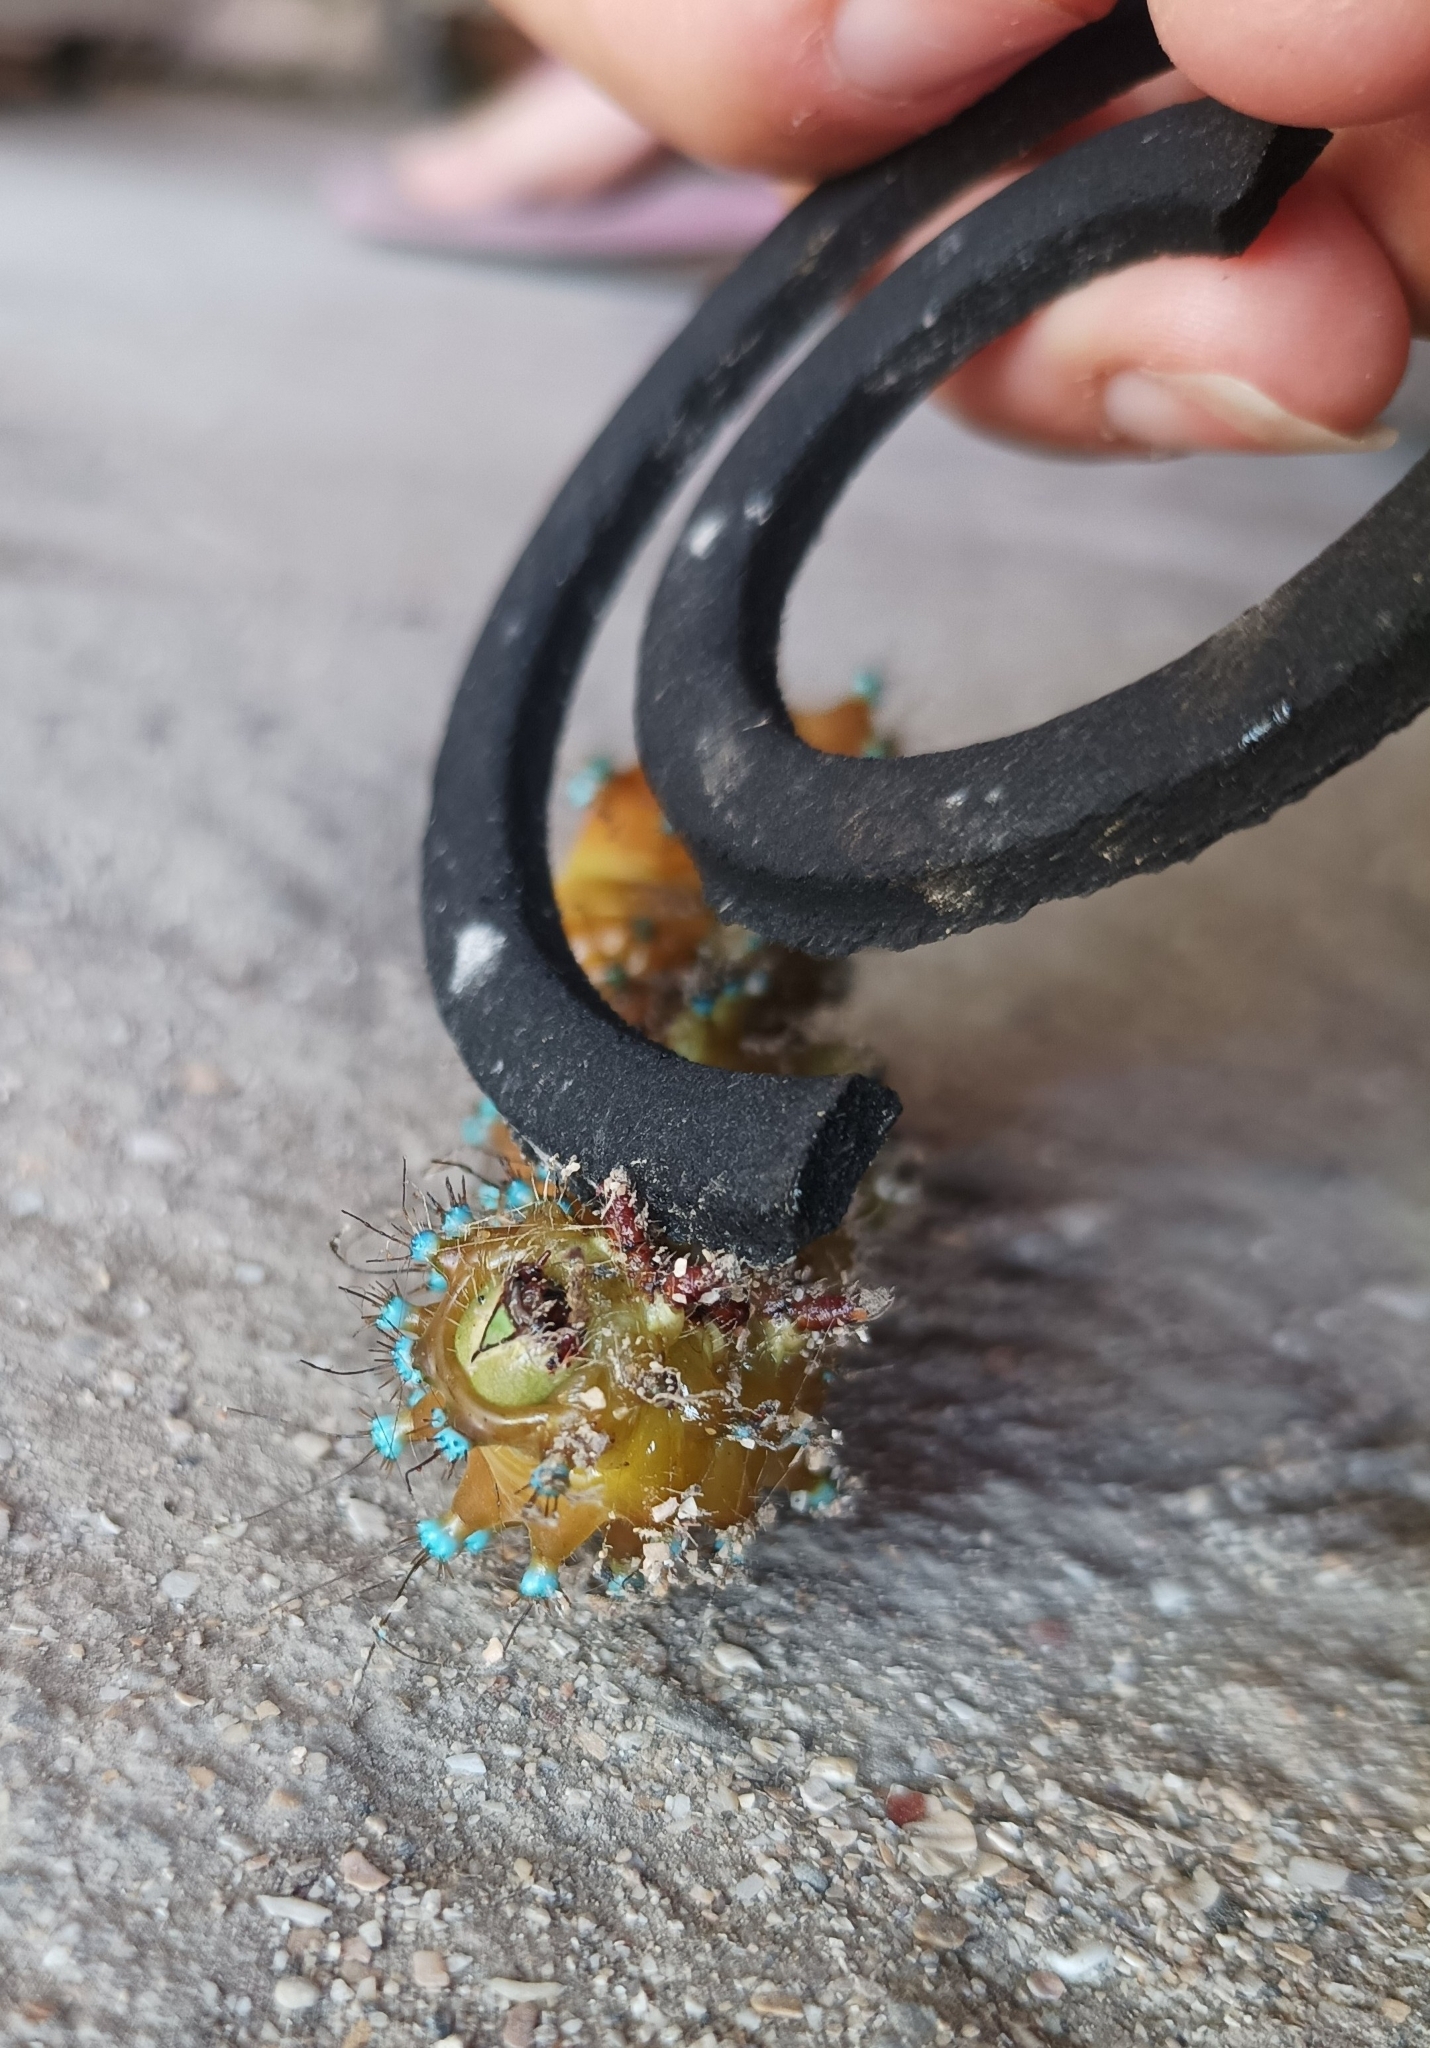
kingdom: Animalia
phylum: Arthropoda
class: Insecta
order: Lepidoptera
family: Saturniidae
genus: Saturnia
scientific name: Saturnia pyri
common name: Great peacock moth
